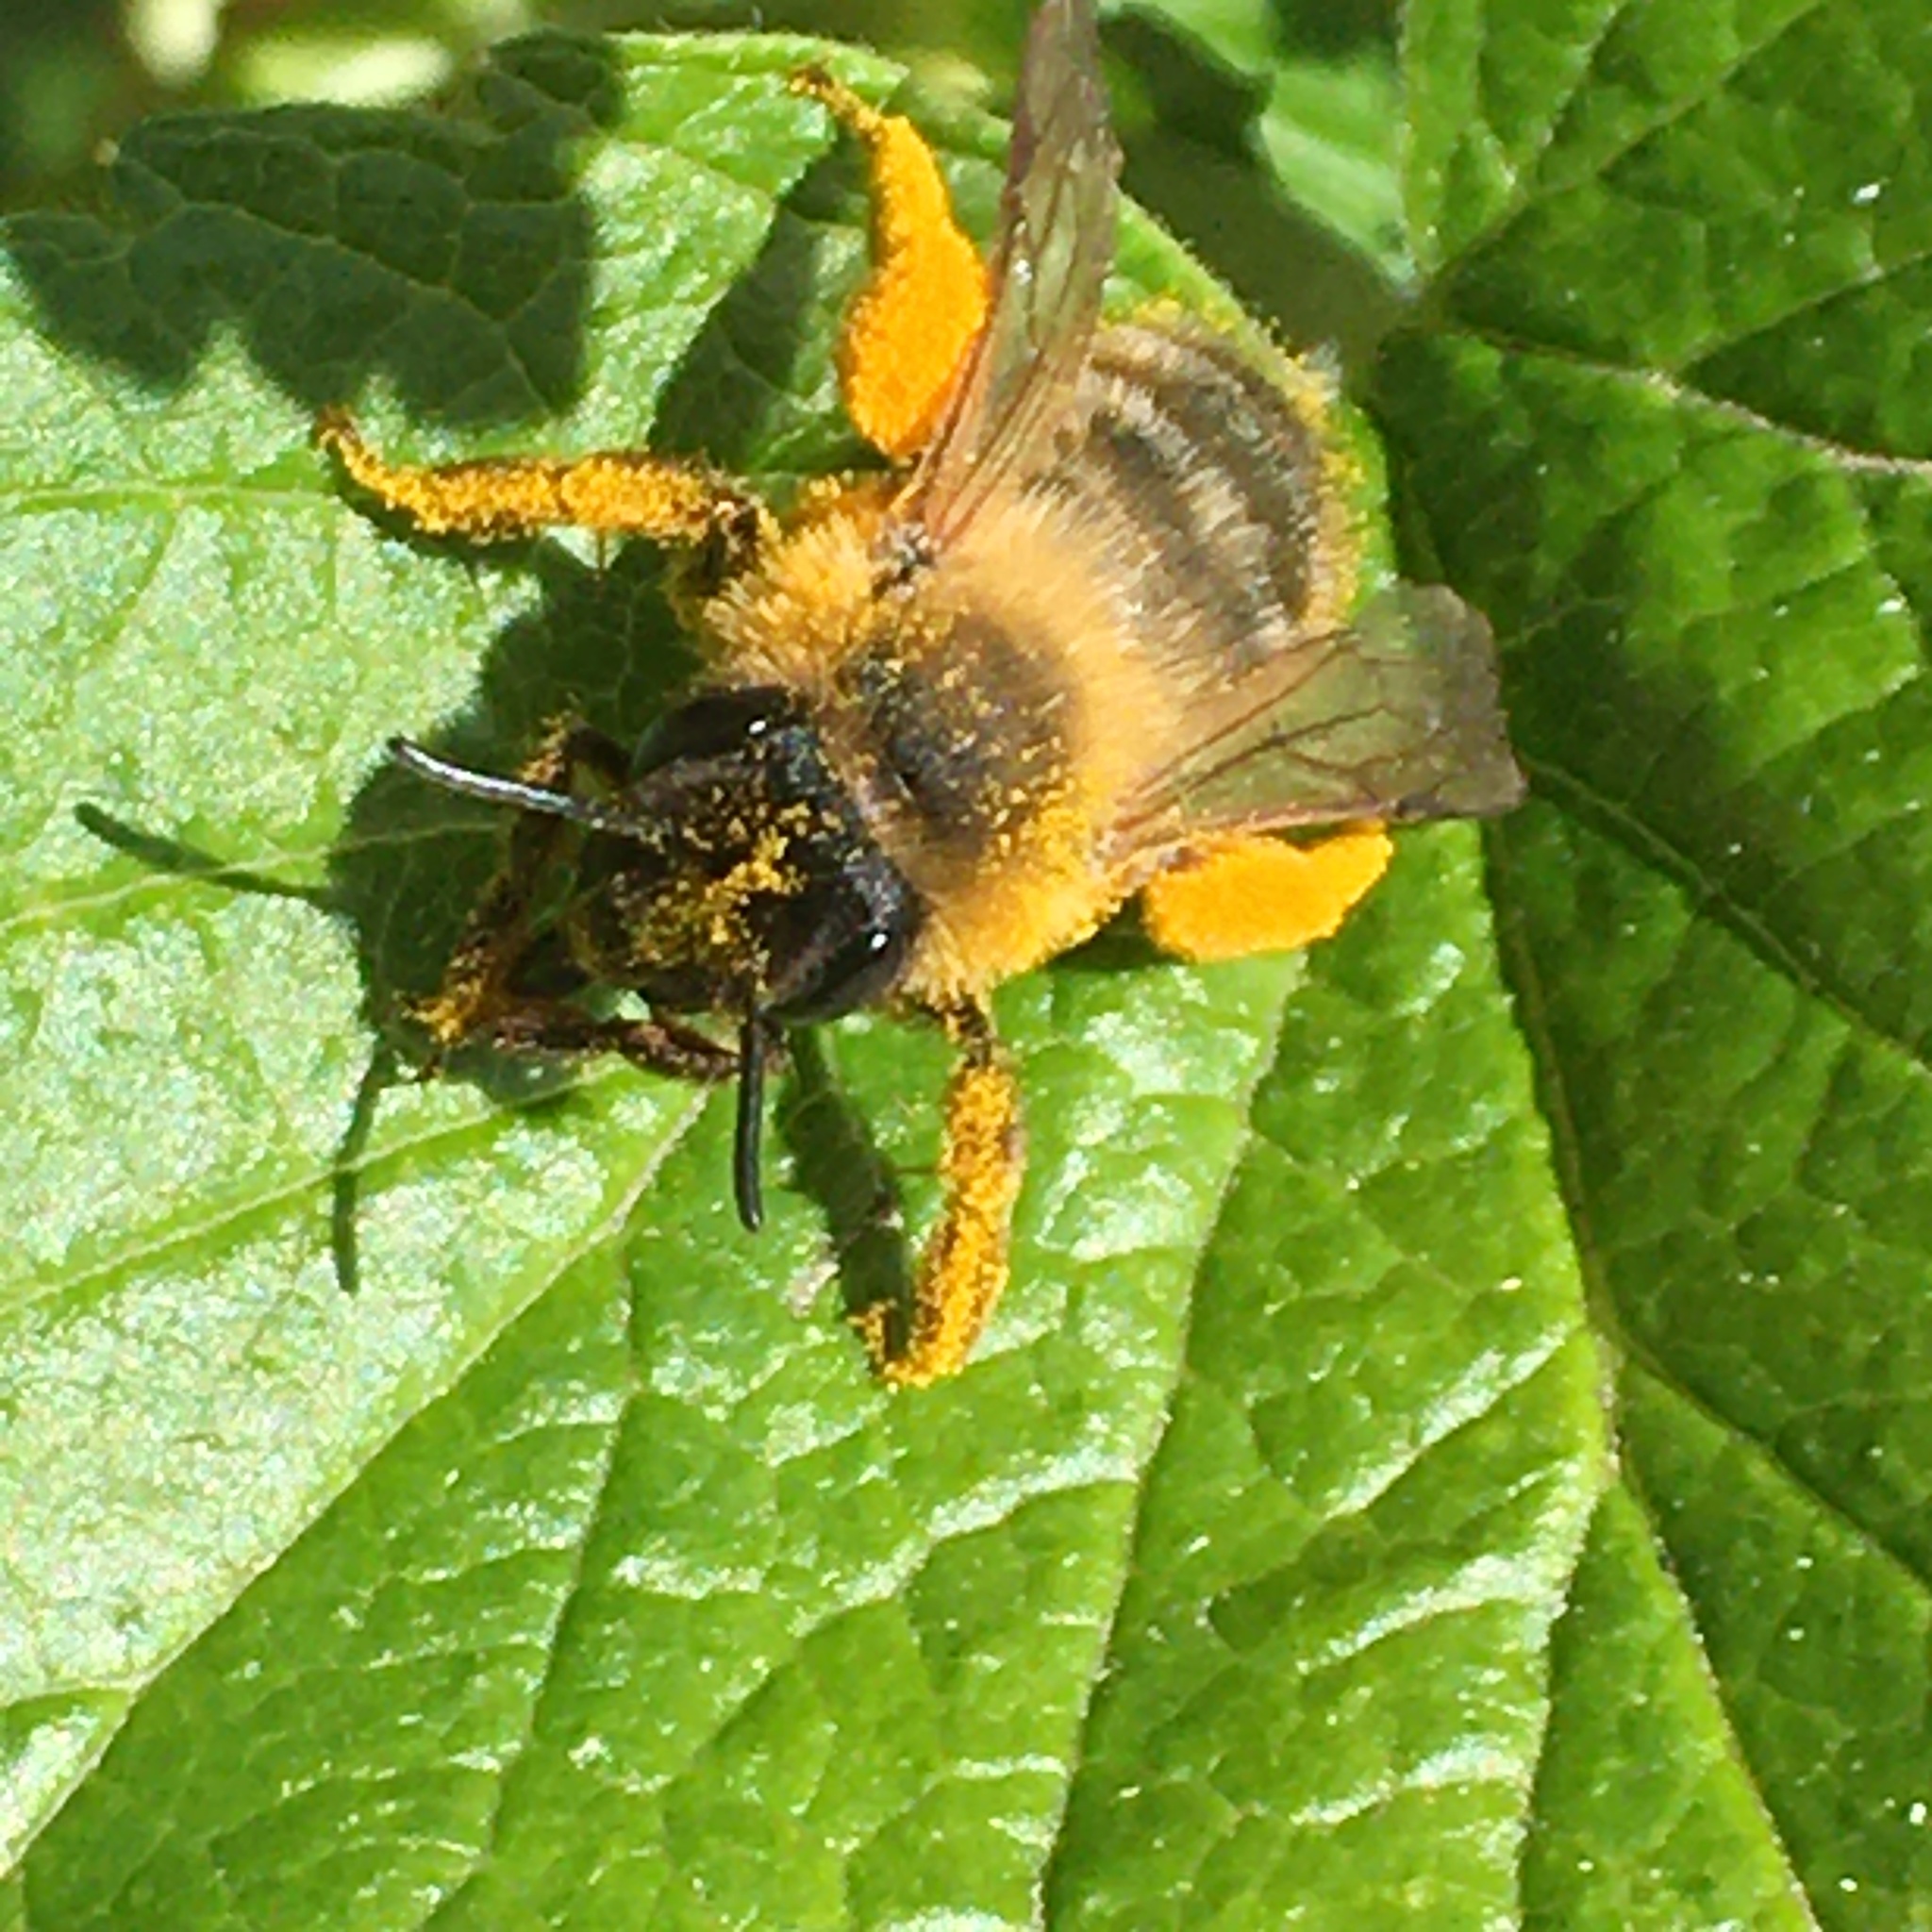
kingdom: Animalia
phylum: Arthropoda
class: Insecta
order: Hymenoptera
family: Andrenidae
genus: Andrena
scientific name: Andrena nigroaenea
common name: Buffish mining bee
